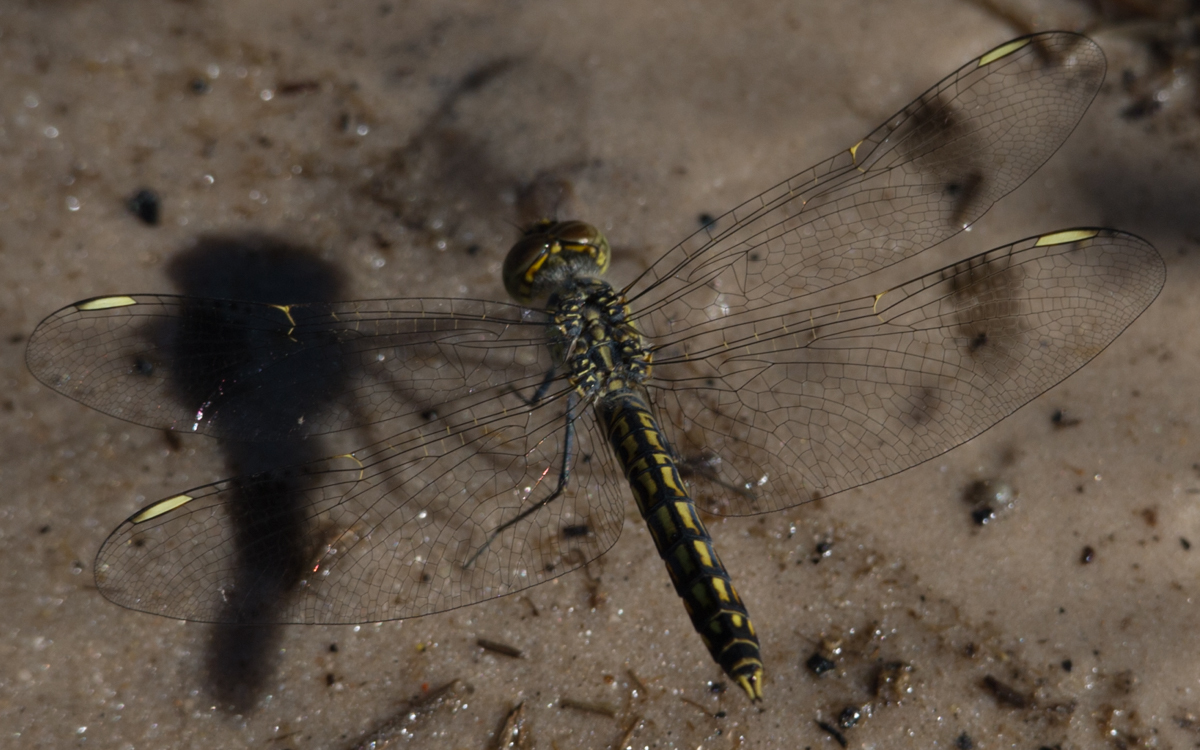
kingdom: Animalia
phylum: Arthropoda
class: Insecta
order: Odonata
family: Libellulidae
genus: Brachythemis
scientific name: Brachythemis leucosticta
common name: Banded groundling
